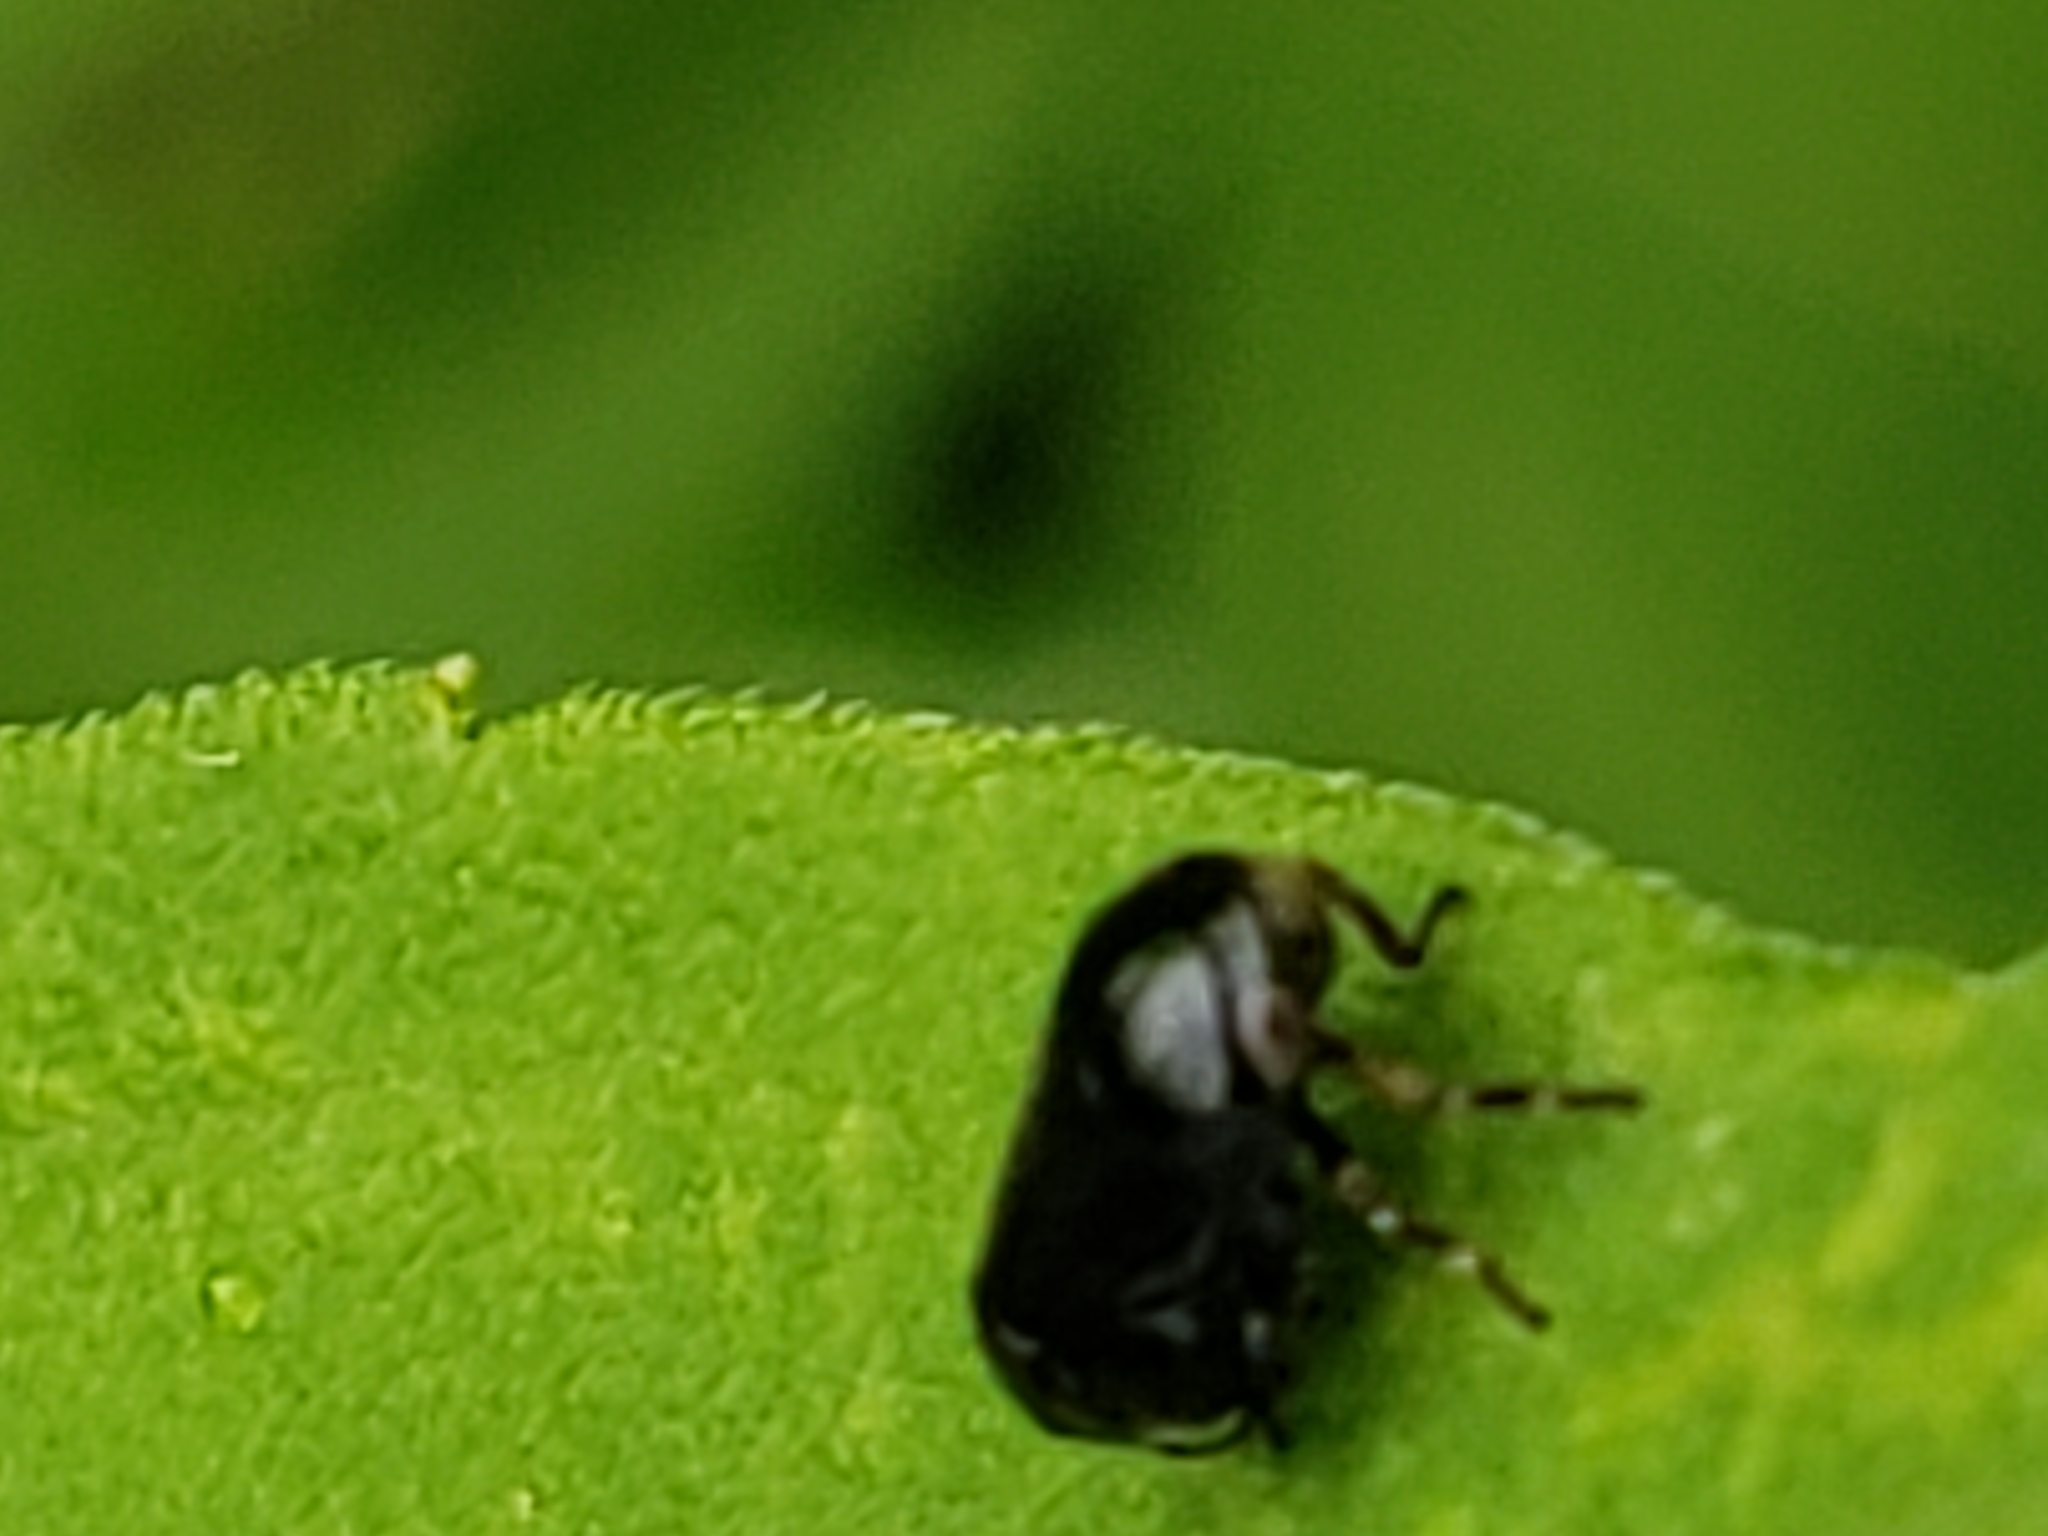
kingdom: Animalia
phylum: Arthropoda
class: Insecta
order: Hemiptera
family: Clastopteridae
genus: Clastoptera
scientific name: Clastoptera xanthocephala
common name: Sunflower spittlebug
